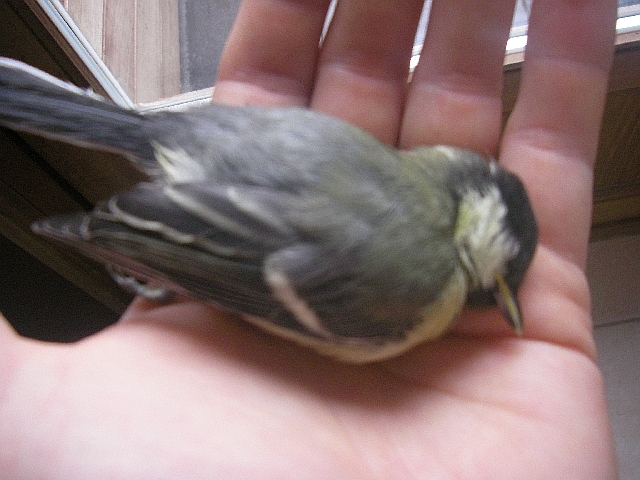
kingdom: Animalia
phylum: Chordata
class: Aves
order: Passeriformes
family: Paridae
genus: Parus
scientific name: Parus major
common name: Great tit
